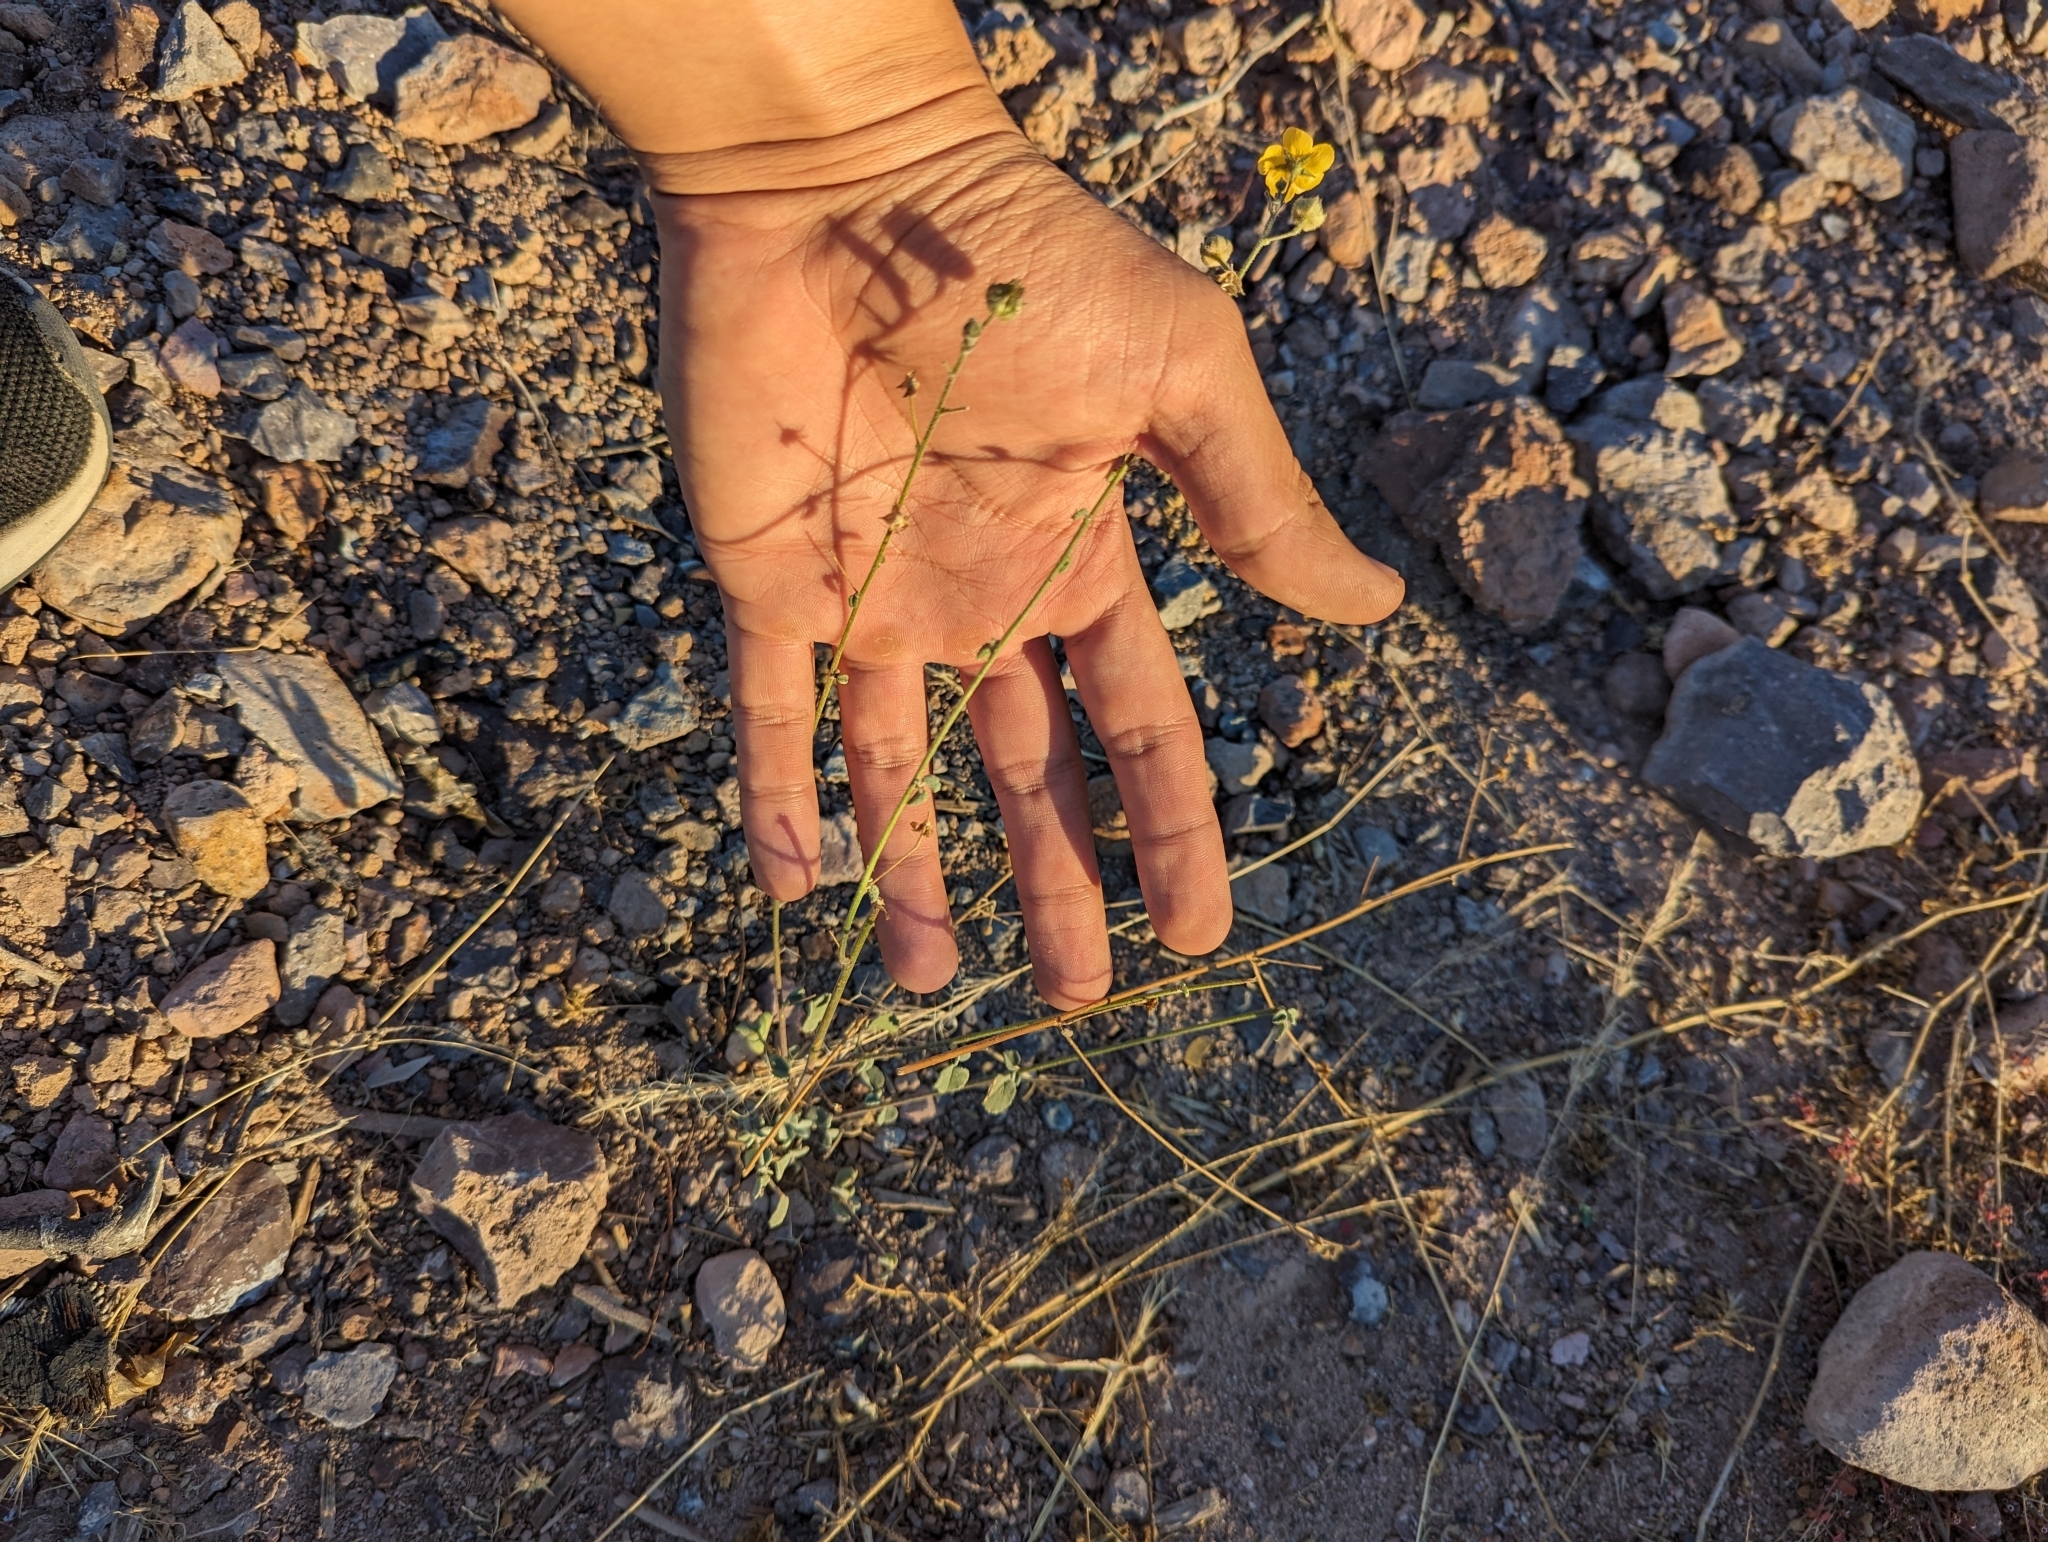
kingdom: Plantae
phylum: Tracheophyta
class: Magnoliopsida
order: Malvales
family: Malvaceae
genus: Horsfordia
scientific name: Horsfordia rotundifolia
